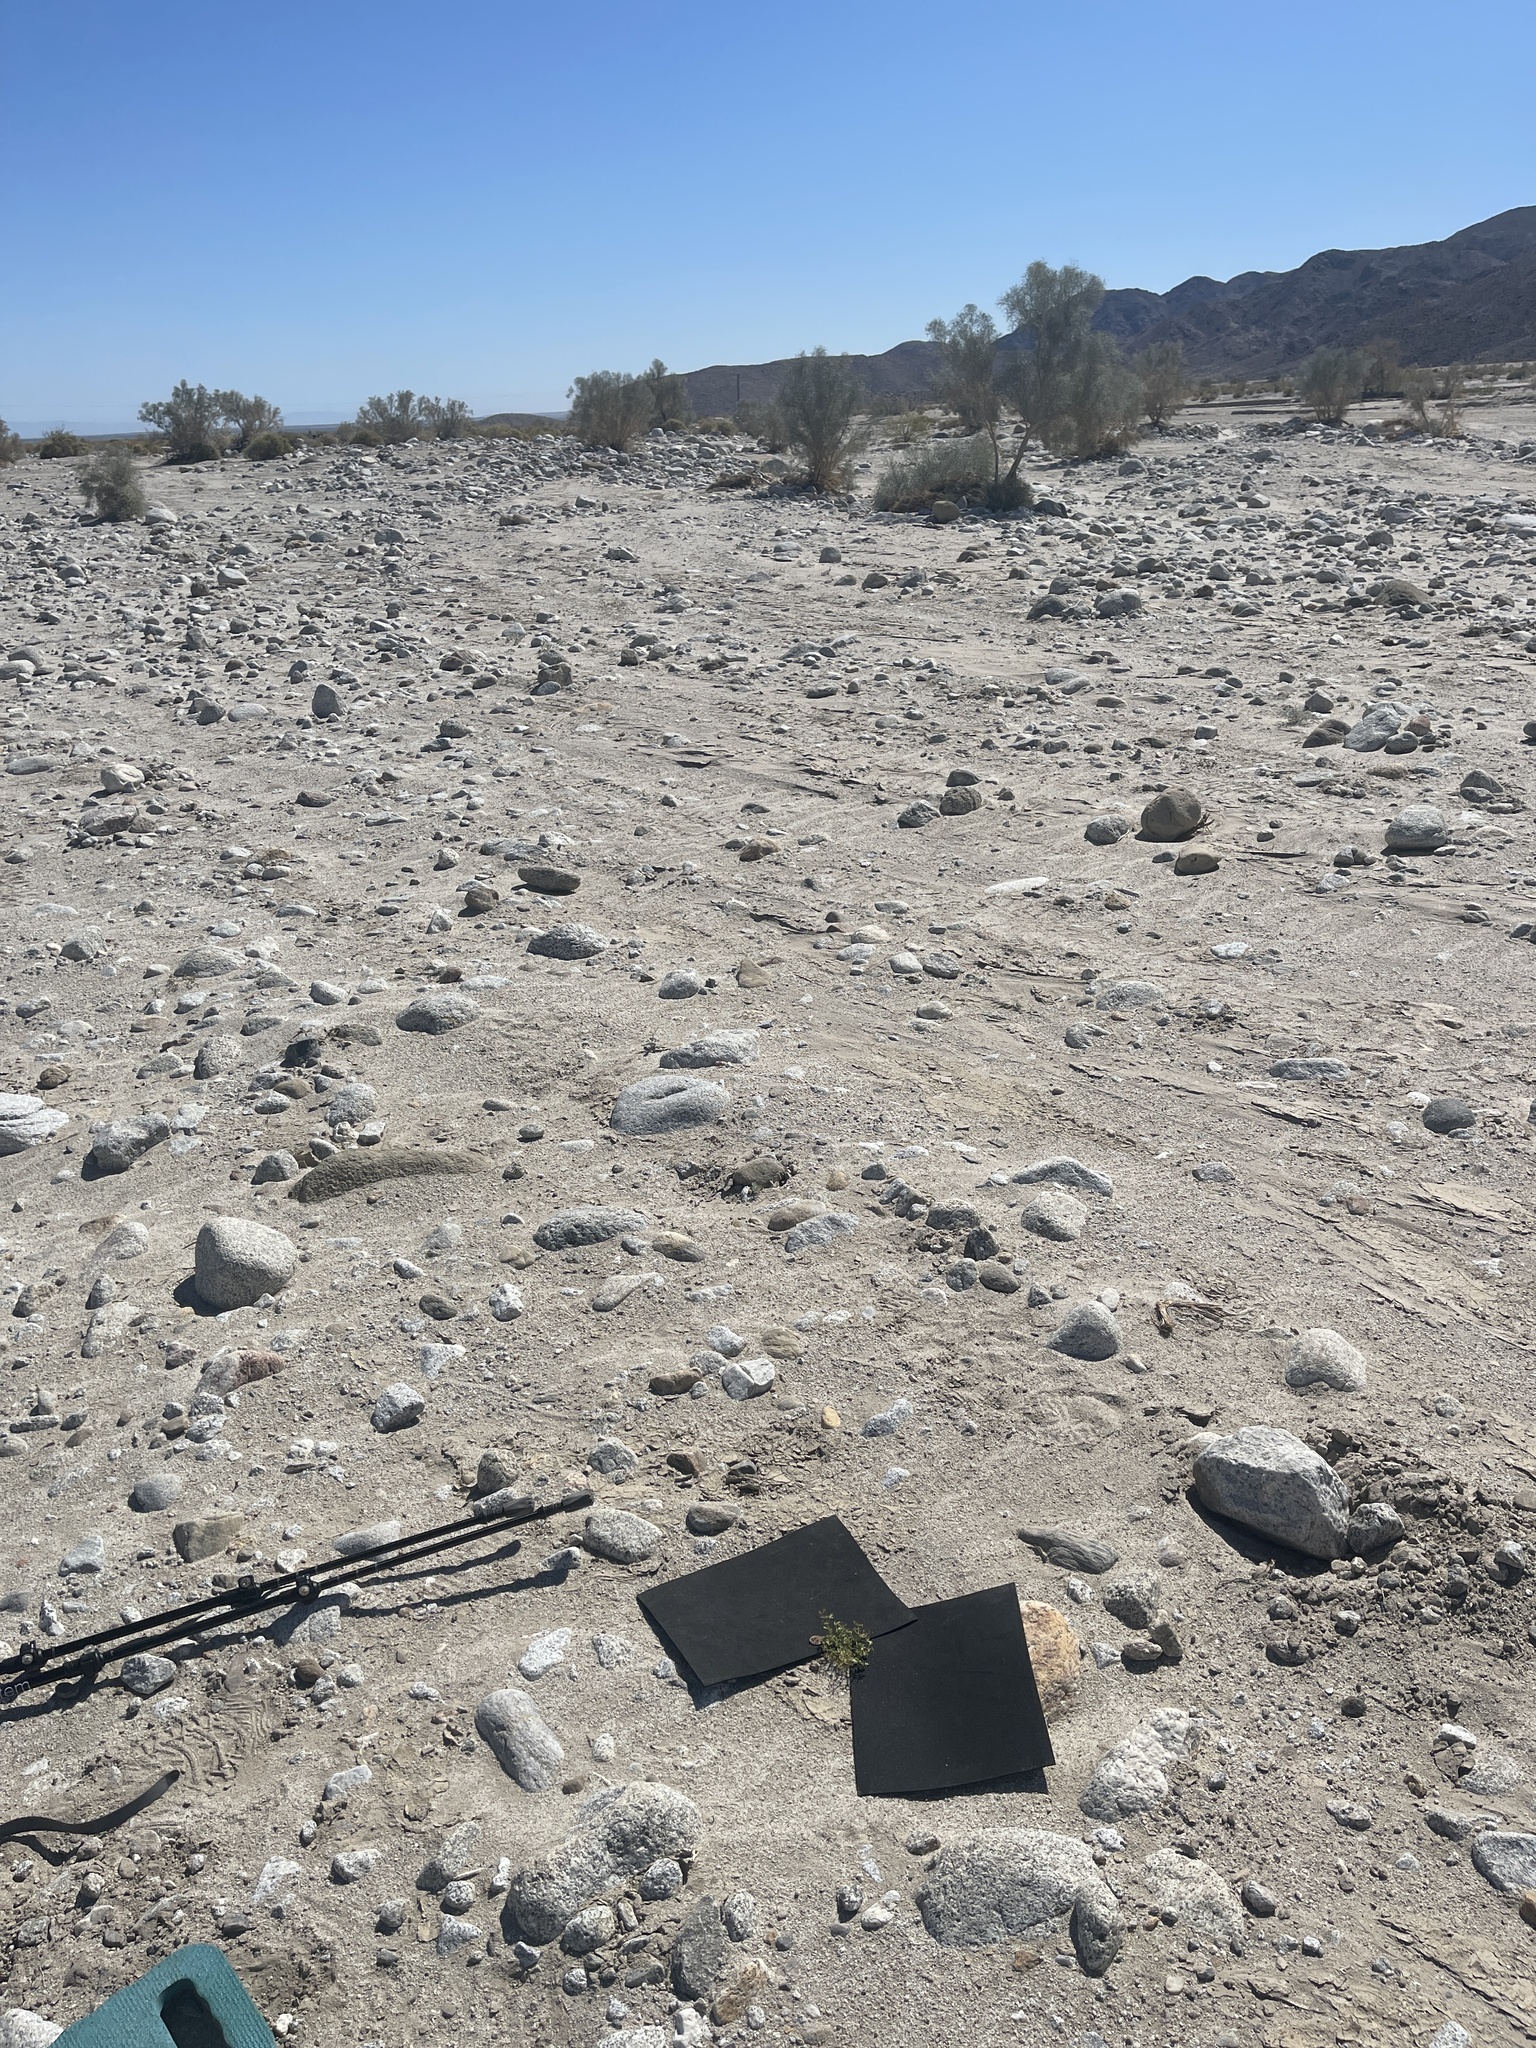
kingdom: Plantae
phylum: Tracheophyta
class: Magnoliopsida
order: Zygophyllales
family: Zygophyllaceae
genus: Fagonia
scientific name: Fagonia pachyacantha
